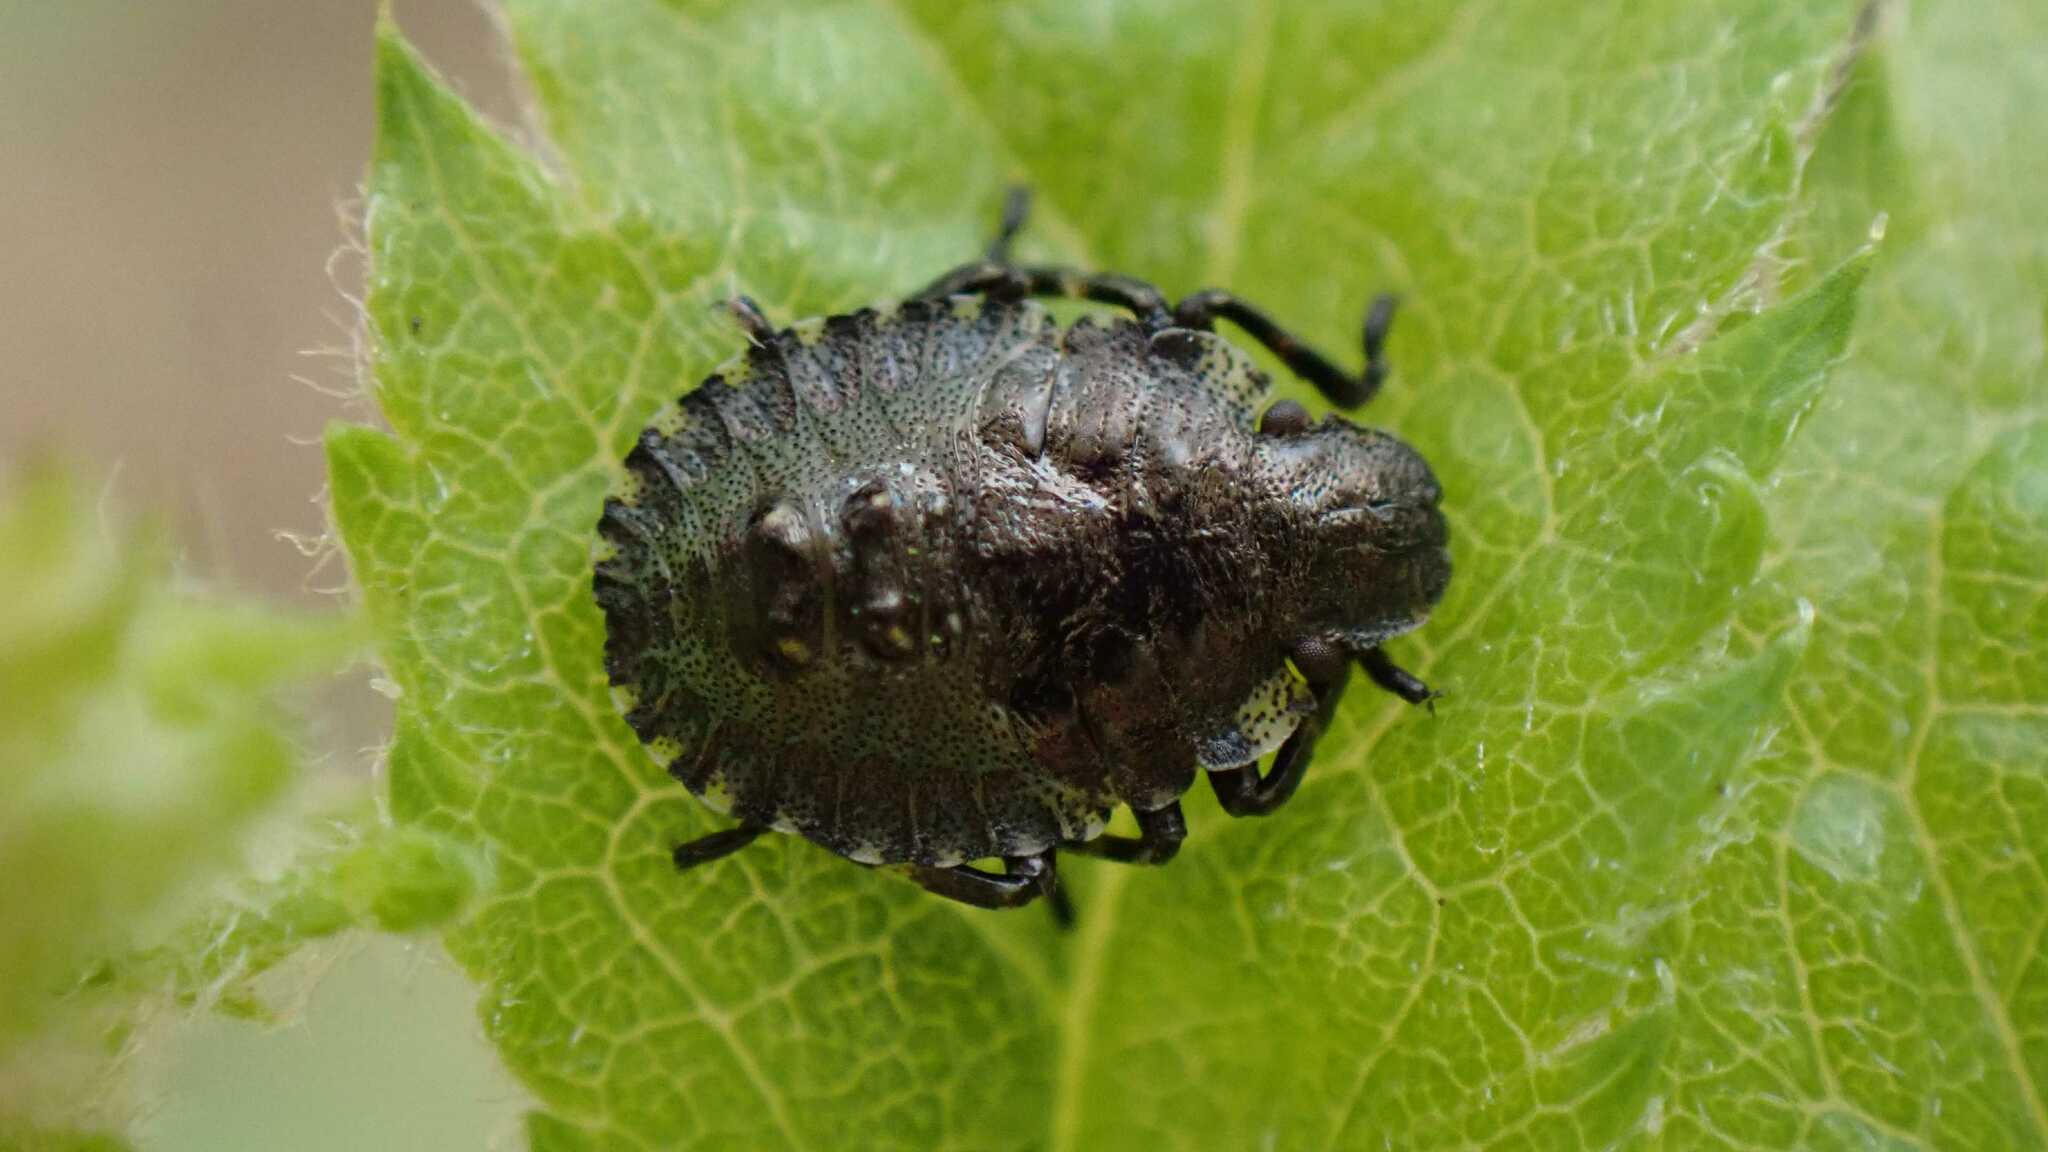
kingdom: Animalia
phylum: Arthropoda
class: Insecta
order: Hemiptera
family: Pentatomidae
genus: Pentatoma
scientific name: Pentatoma rufipes
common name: Forest bug
